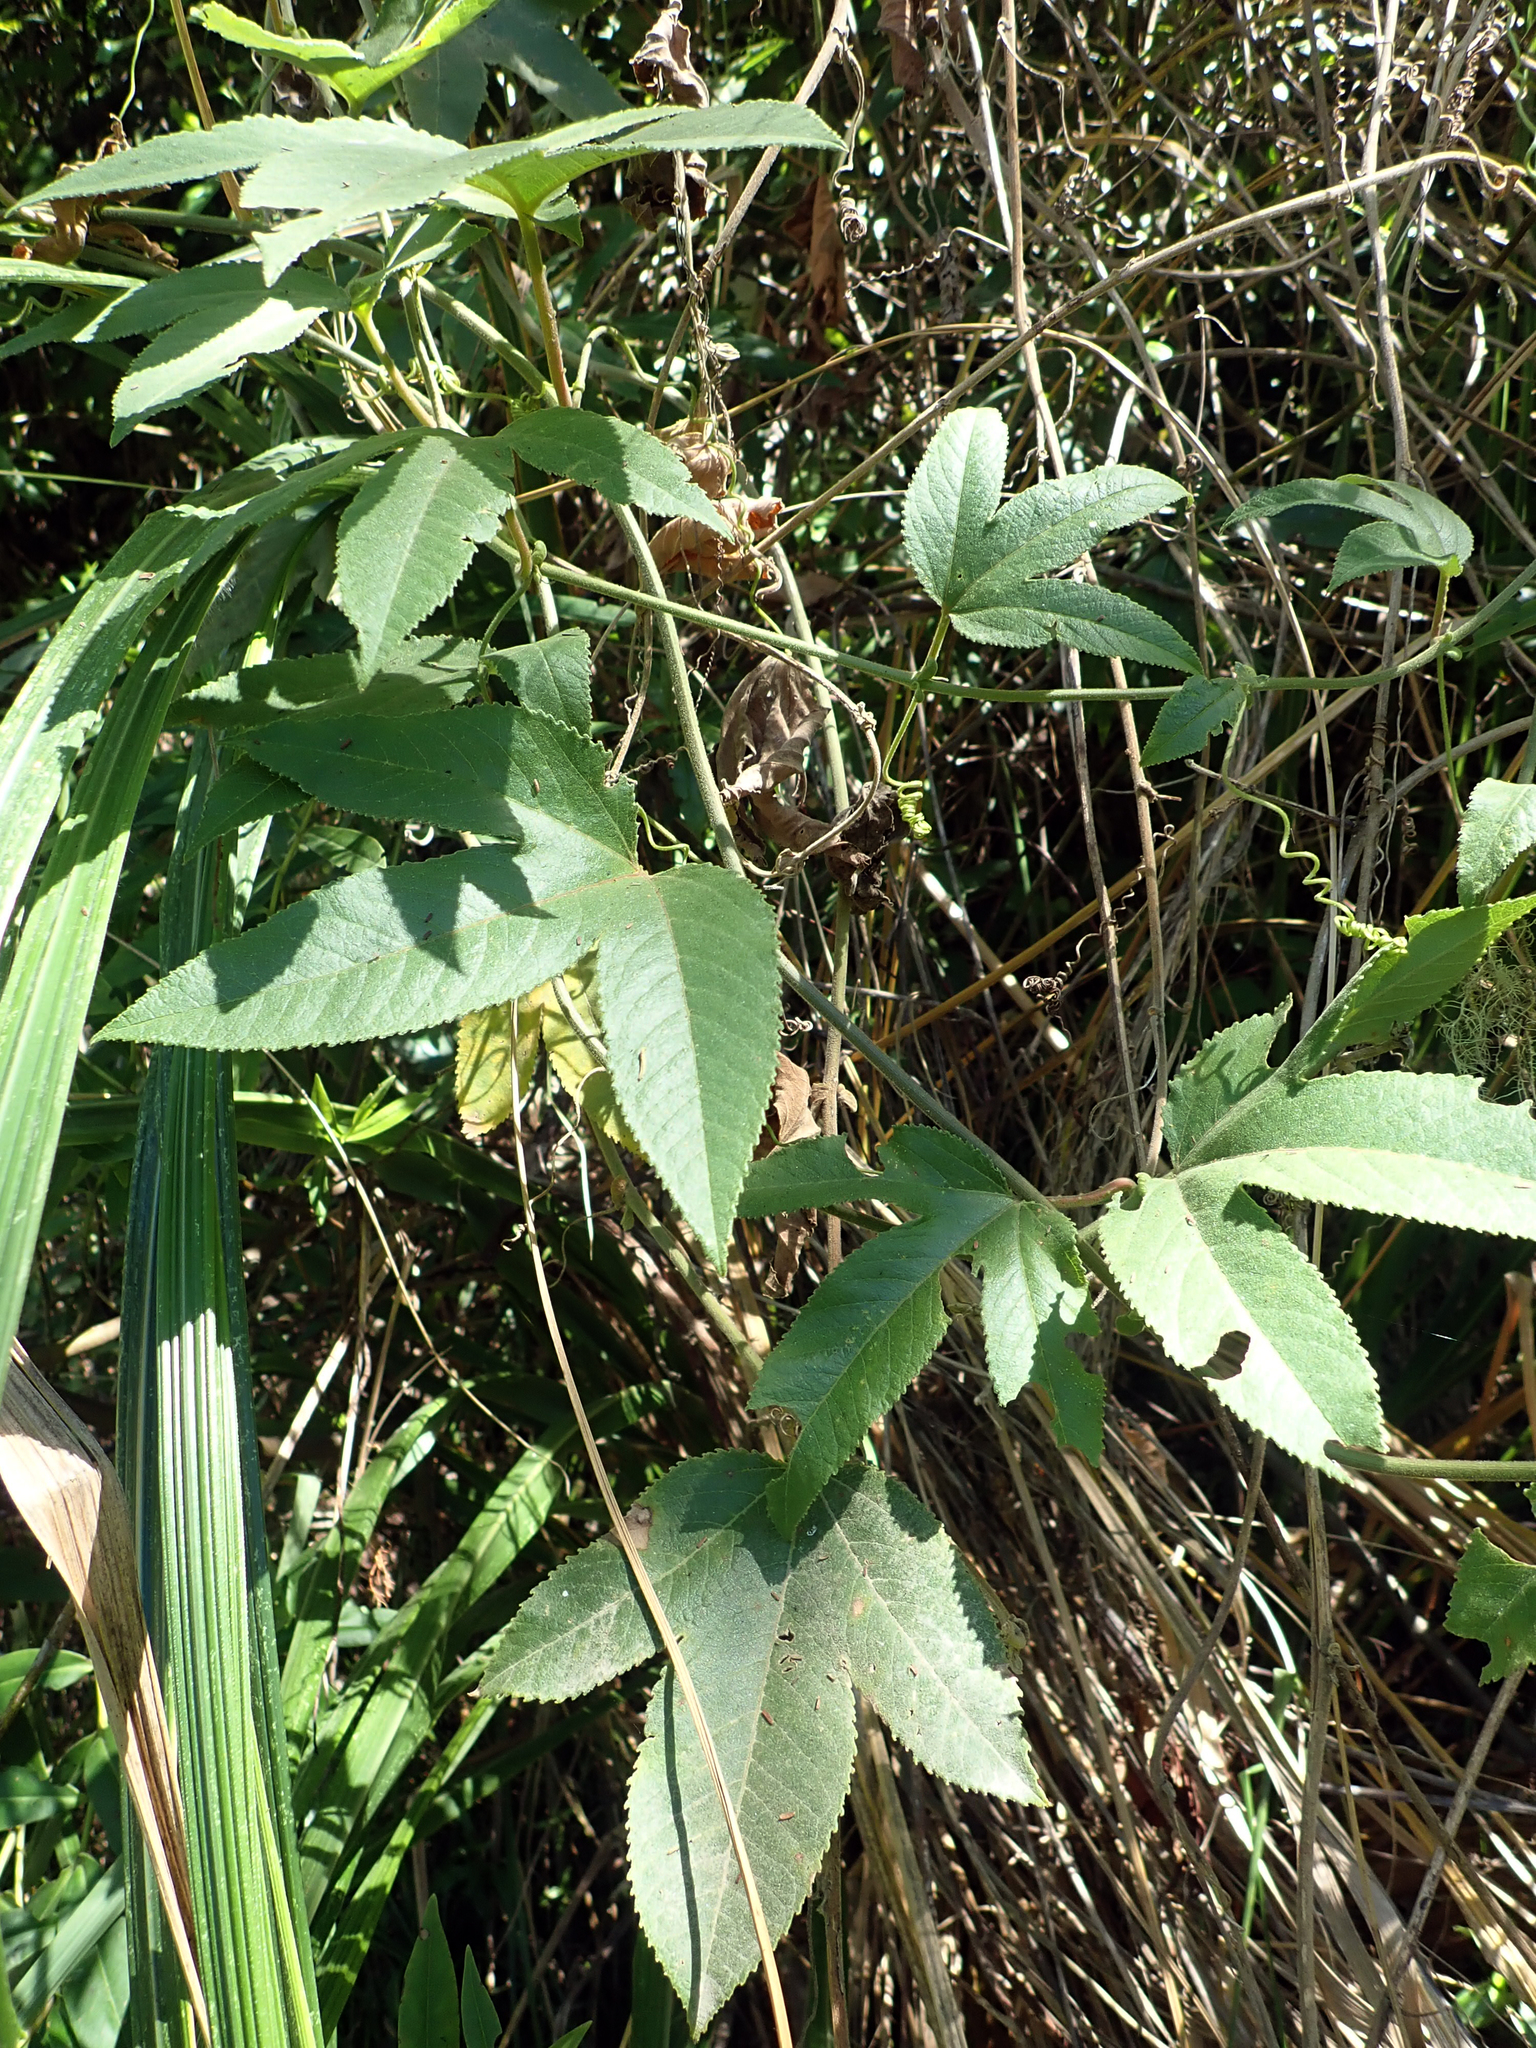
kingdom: Plantae
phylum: Tracheophyta
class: Magnoliopsida
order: Malpighiales
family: Passifloraceae
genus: Passiflora
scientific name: Passiflora tripartita
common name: Banana poka
